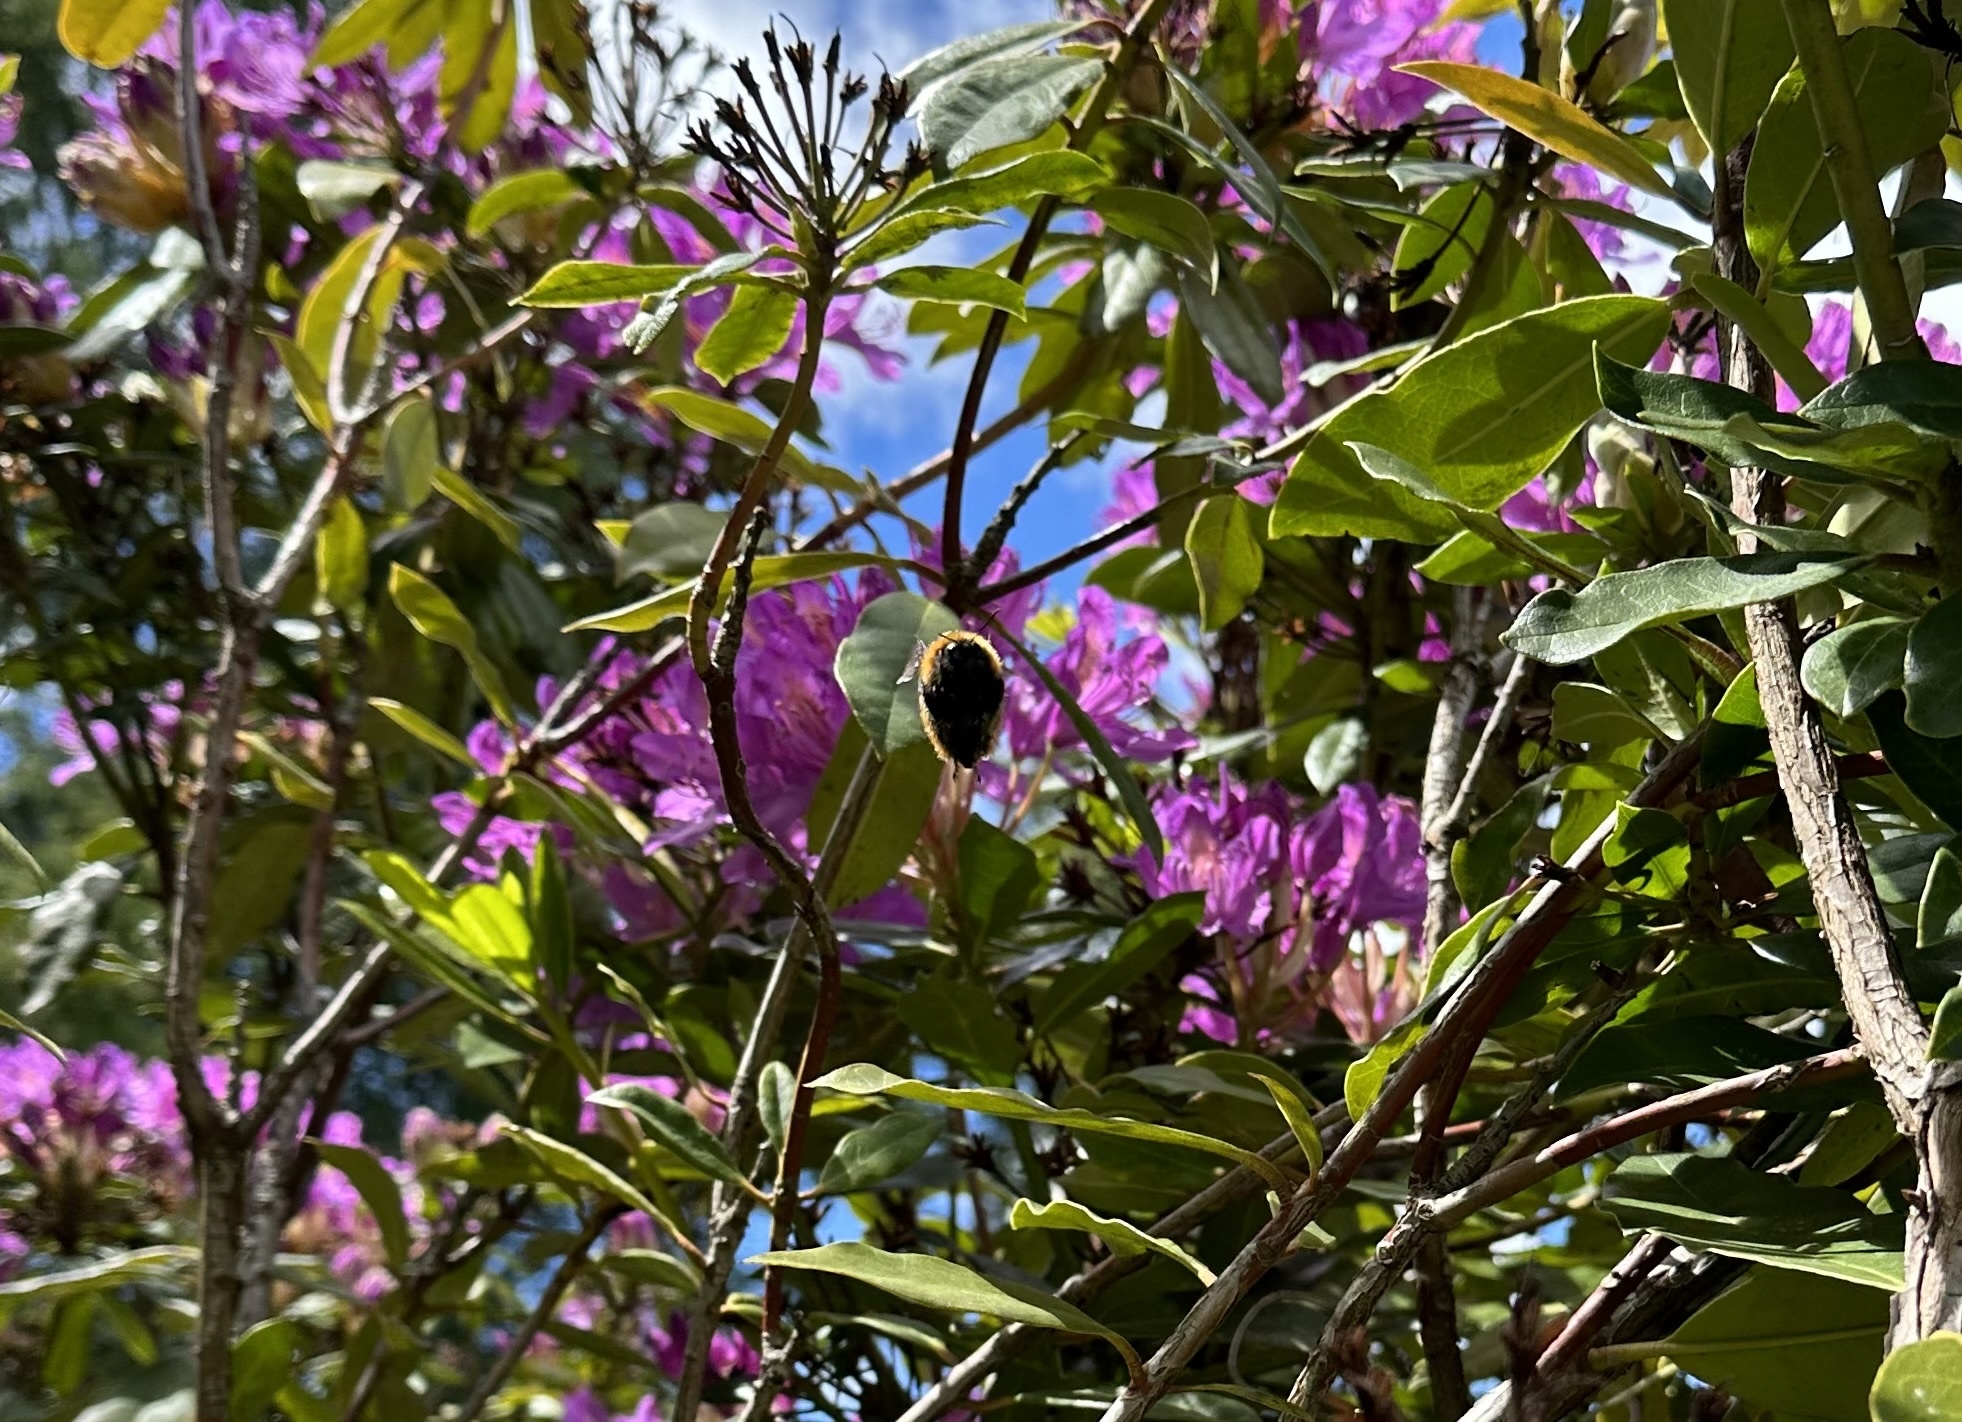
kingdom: Animalia
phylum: Arthropoda
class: Insecta
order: Hymenoptera
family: Apidae
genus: Bombus
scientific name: Bombus dahlbomii
